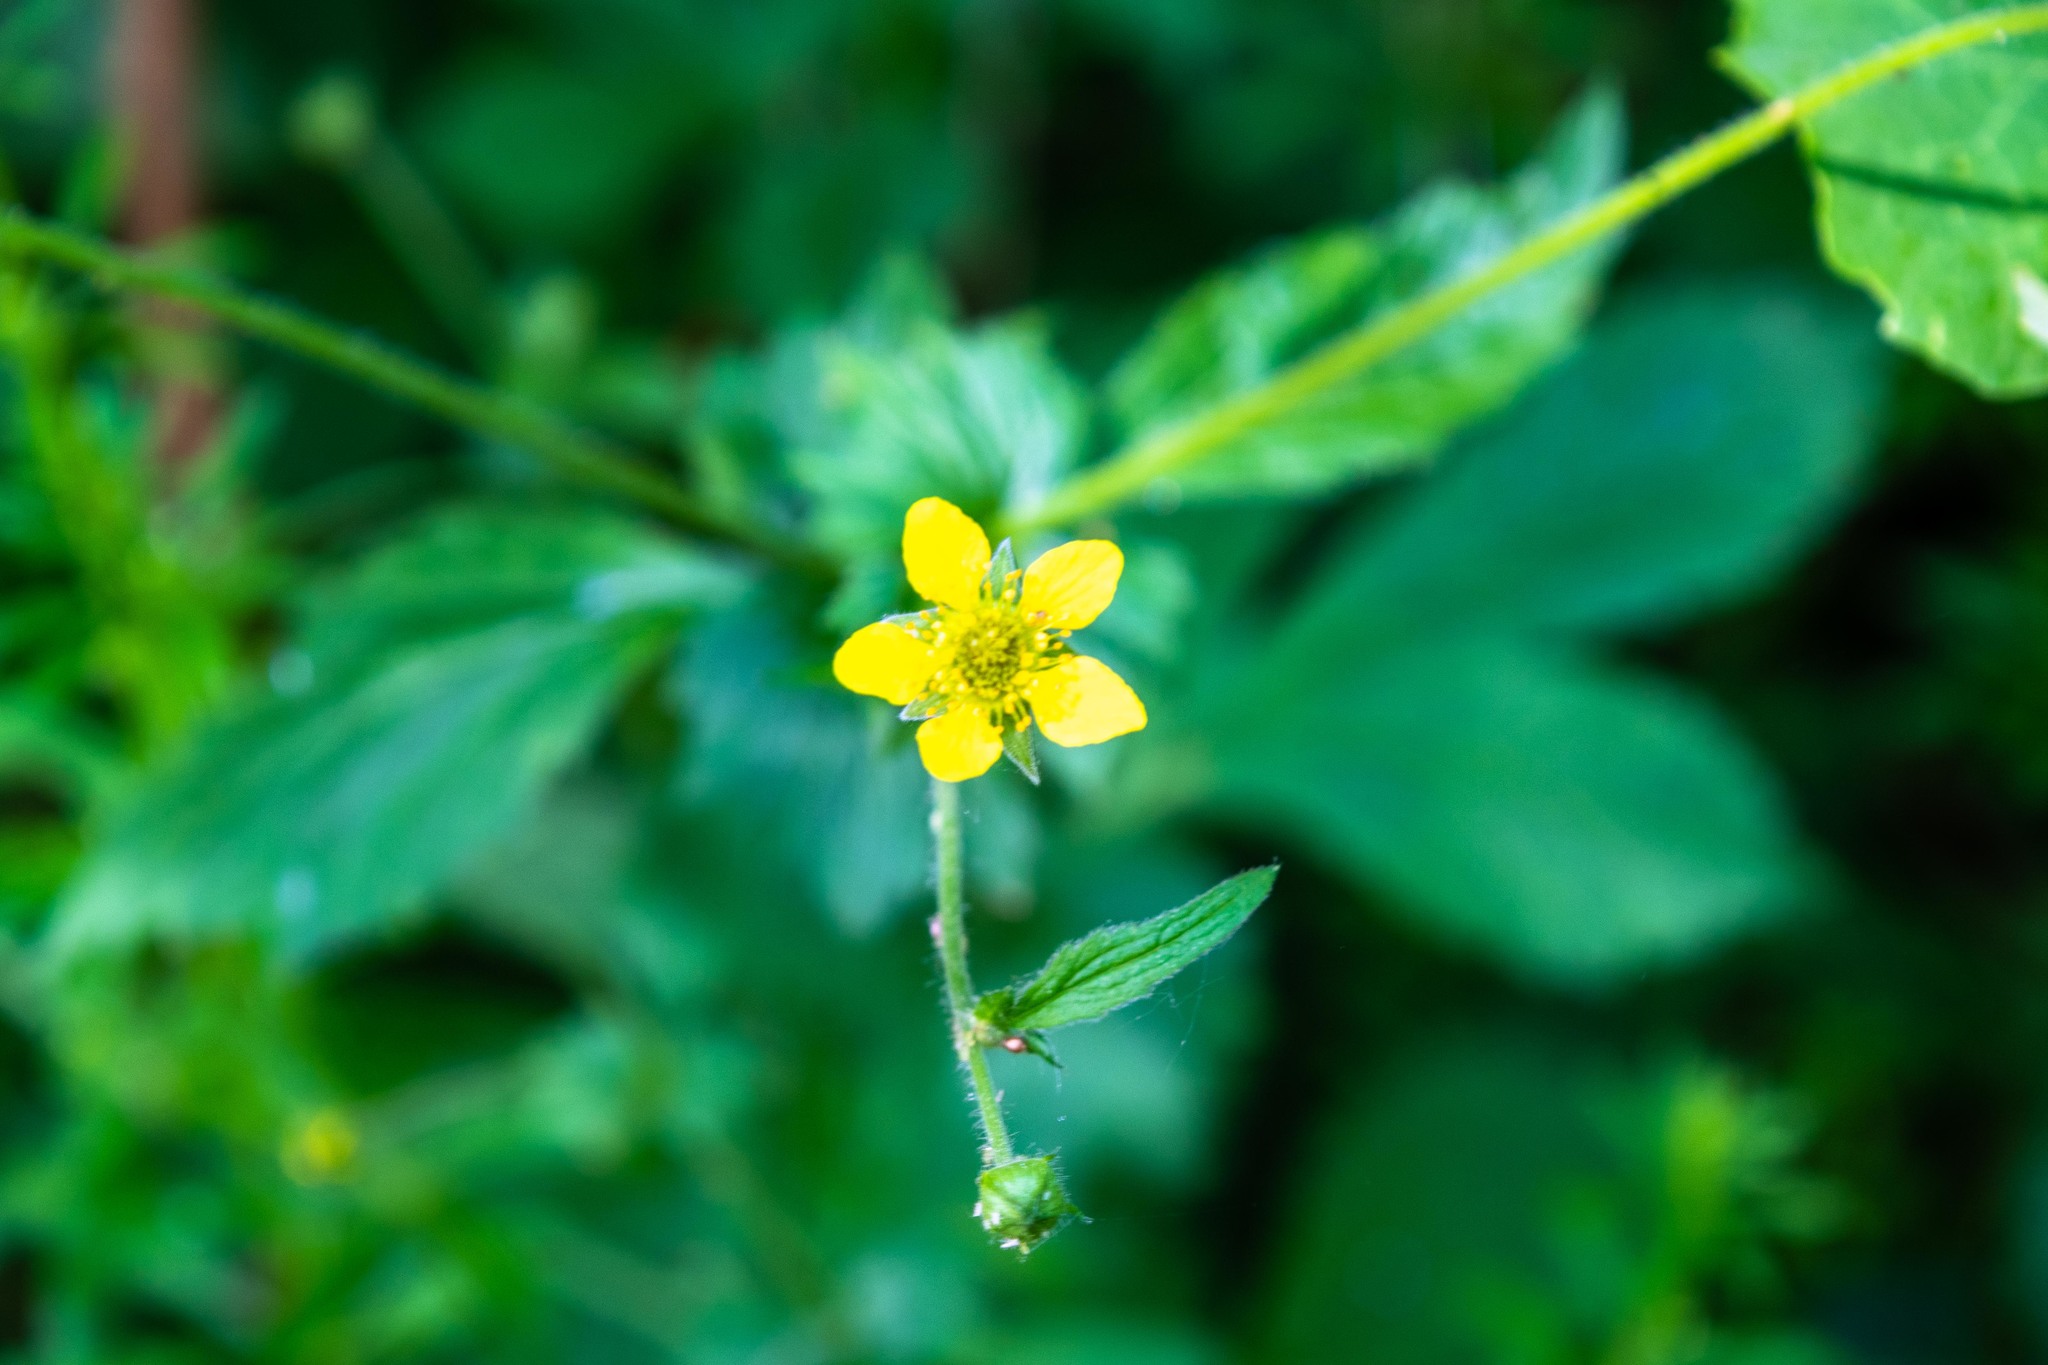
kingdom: Plantae
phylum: Tracheophyta
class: Magnoliopsida
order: Rosales
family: Rosaceae
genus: Geum
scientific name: Geum urbanum
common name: Wood avens
